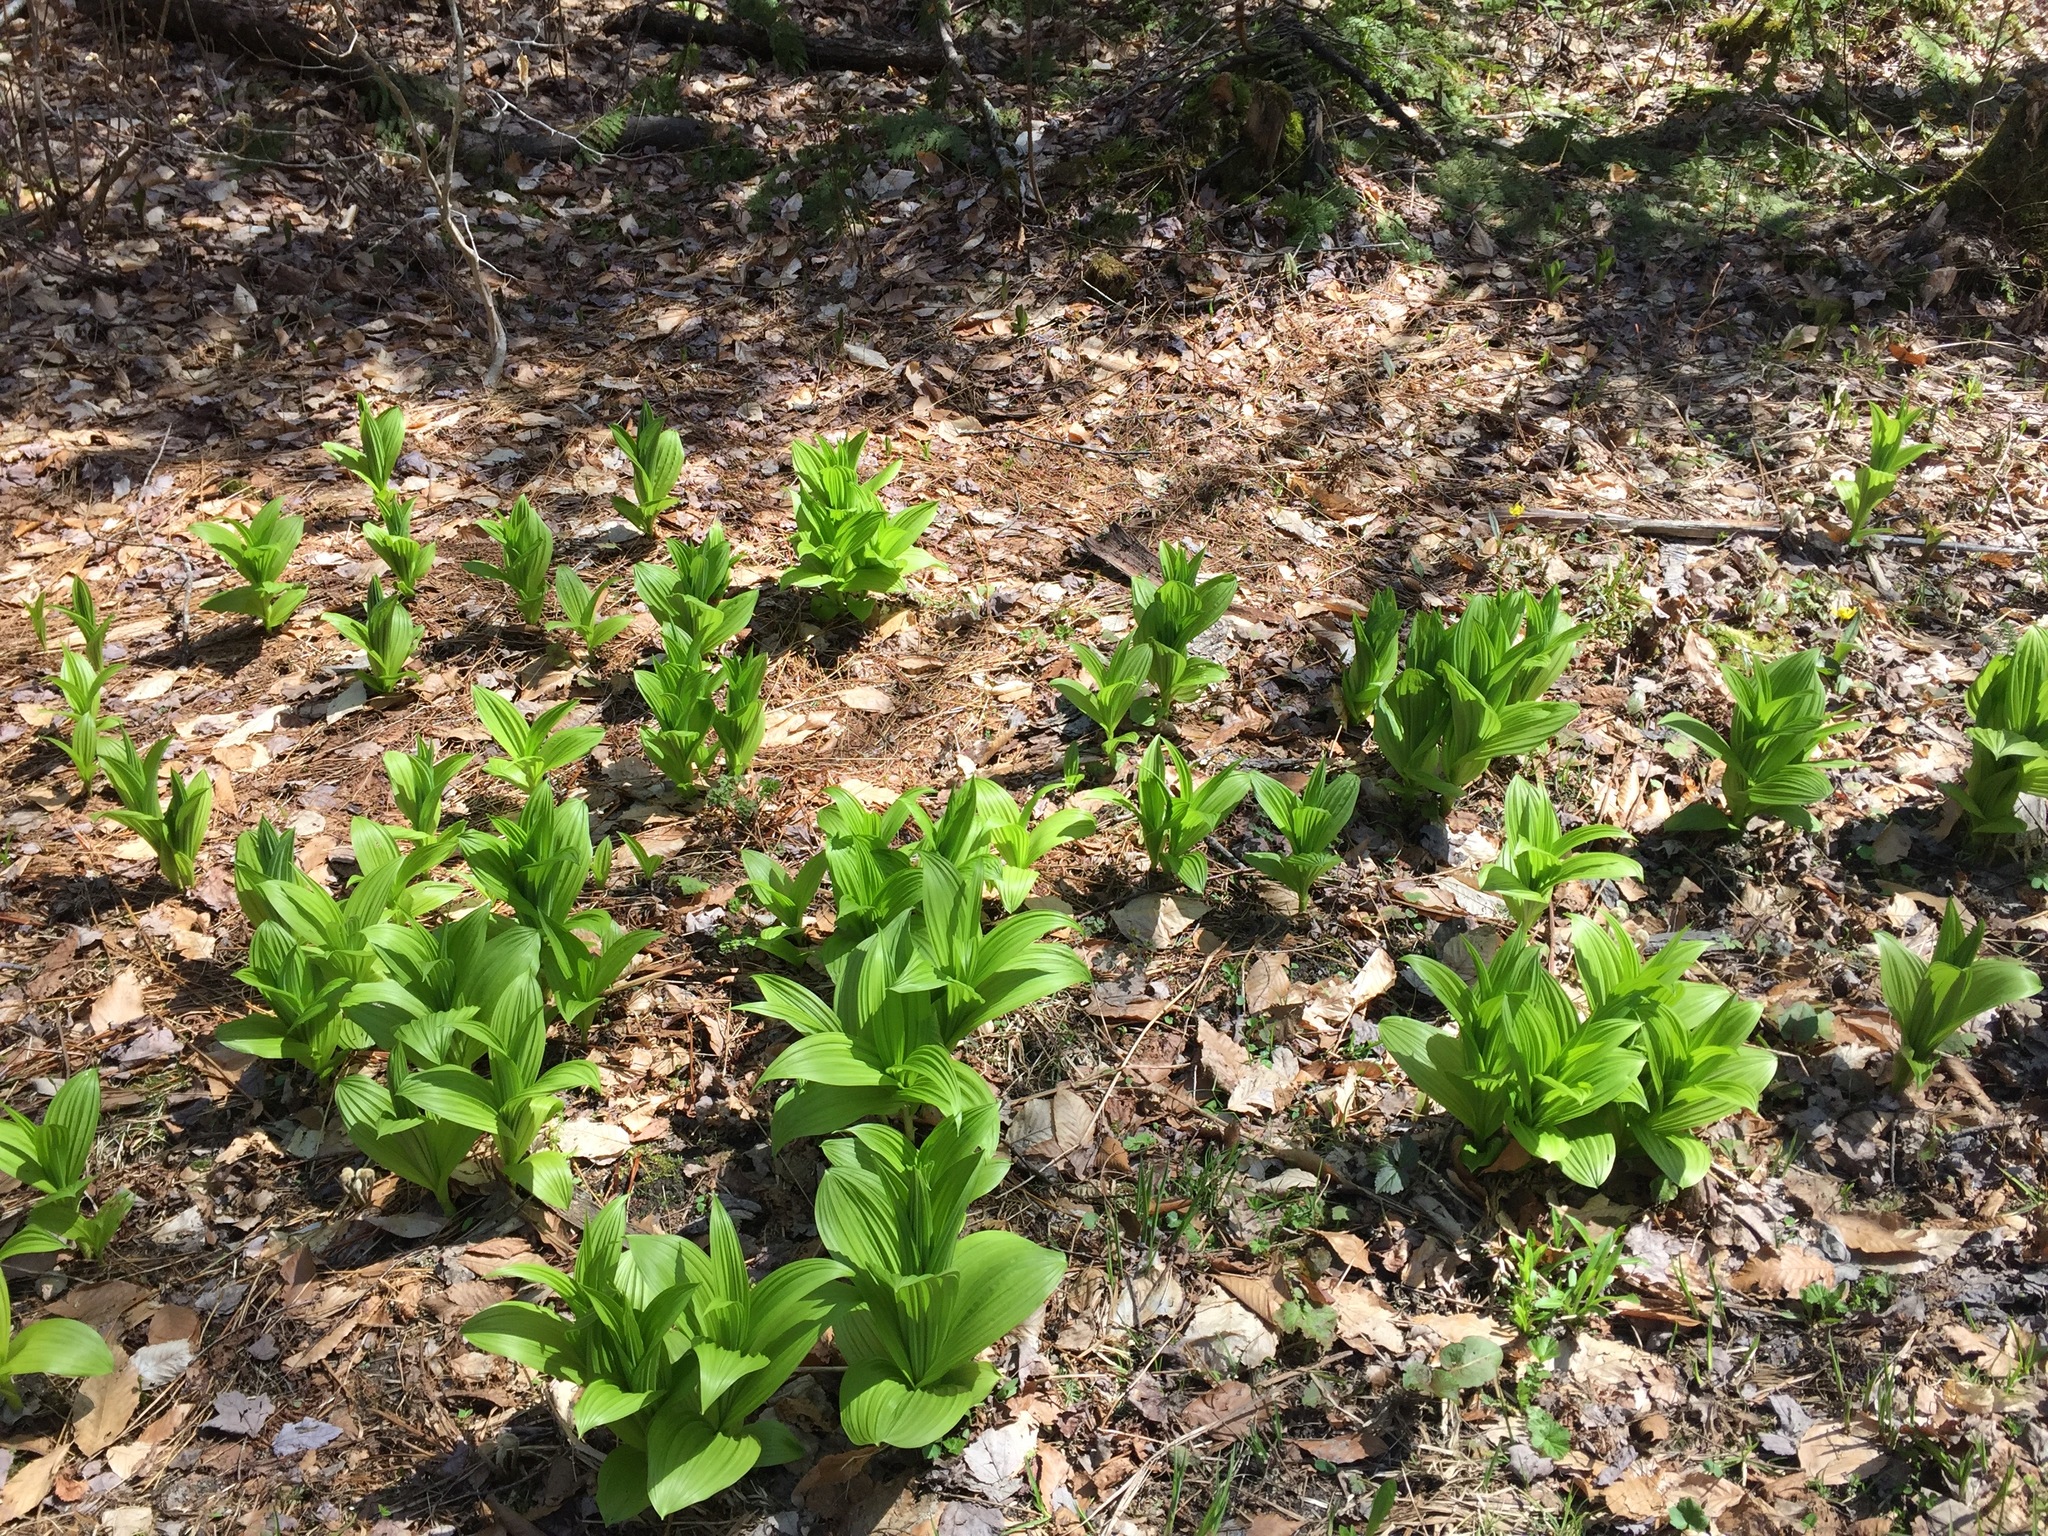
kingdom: Plantae
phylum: Tracheophyta
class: Liliopsida
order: Liliales
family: Melanthiaceae
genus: Veratrum
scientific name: Veratrum viride
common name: American false hellebore
